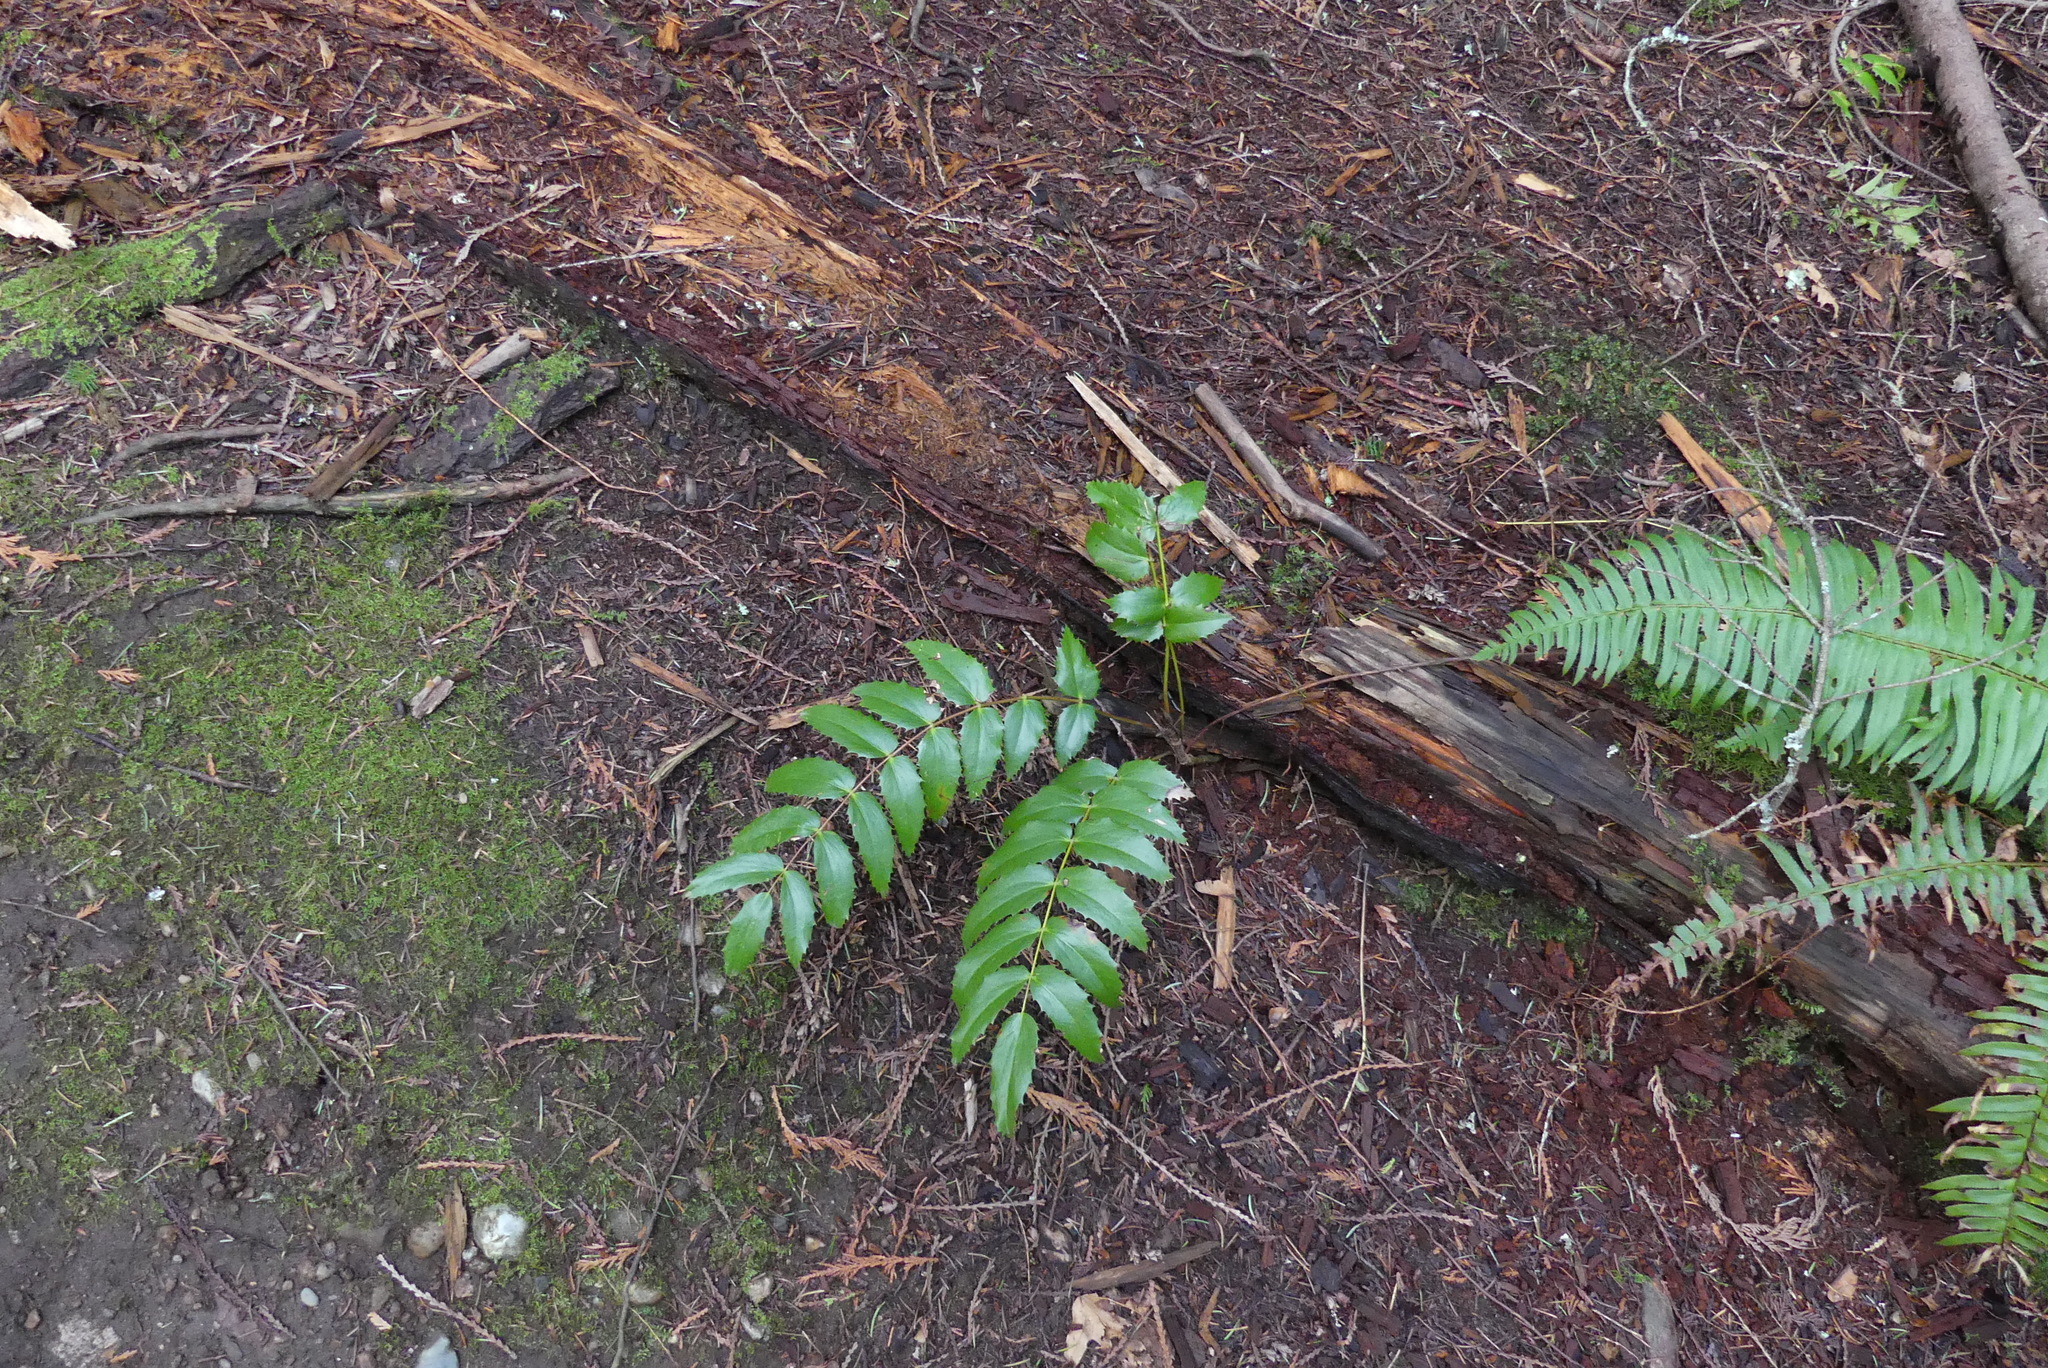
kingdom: Plantae
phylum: Tracheophyta
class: Magnoliopsida
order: Ranunculales
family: Berberidaceae
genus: Mahonia
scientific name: Mahonia nervosa
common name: Cascade oregon-grape
